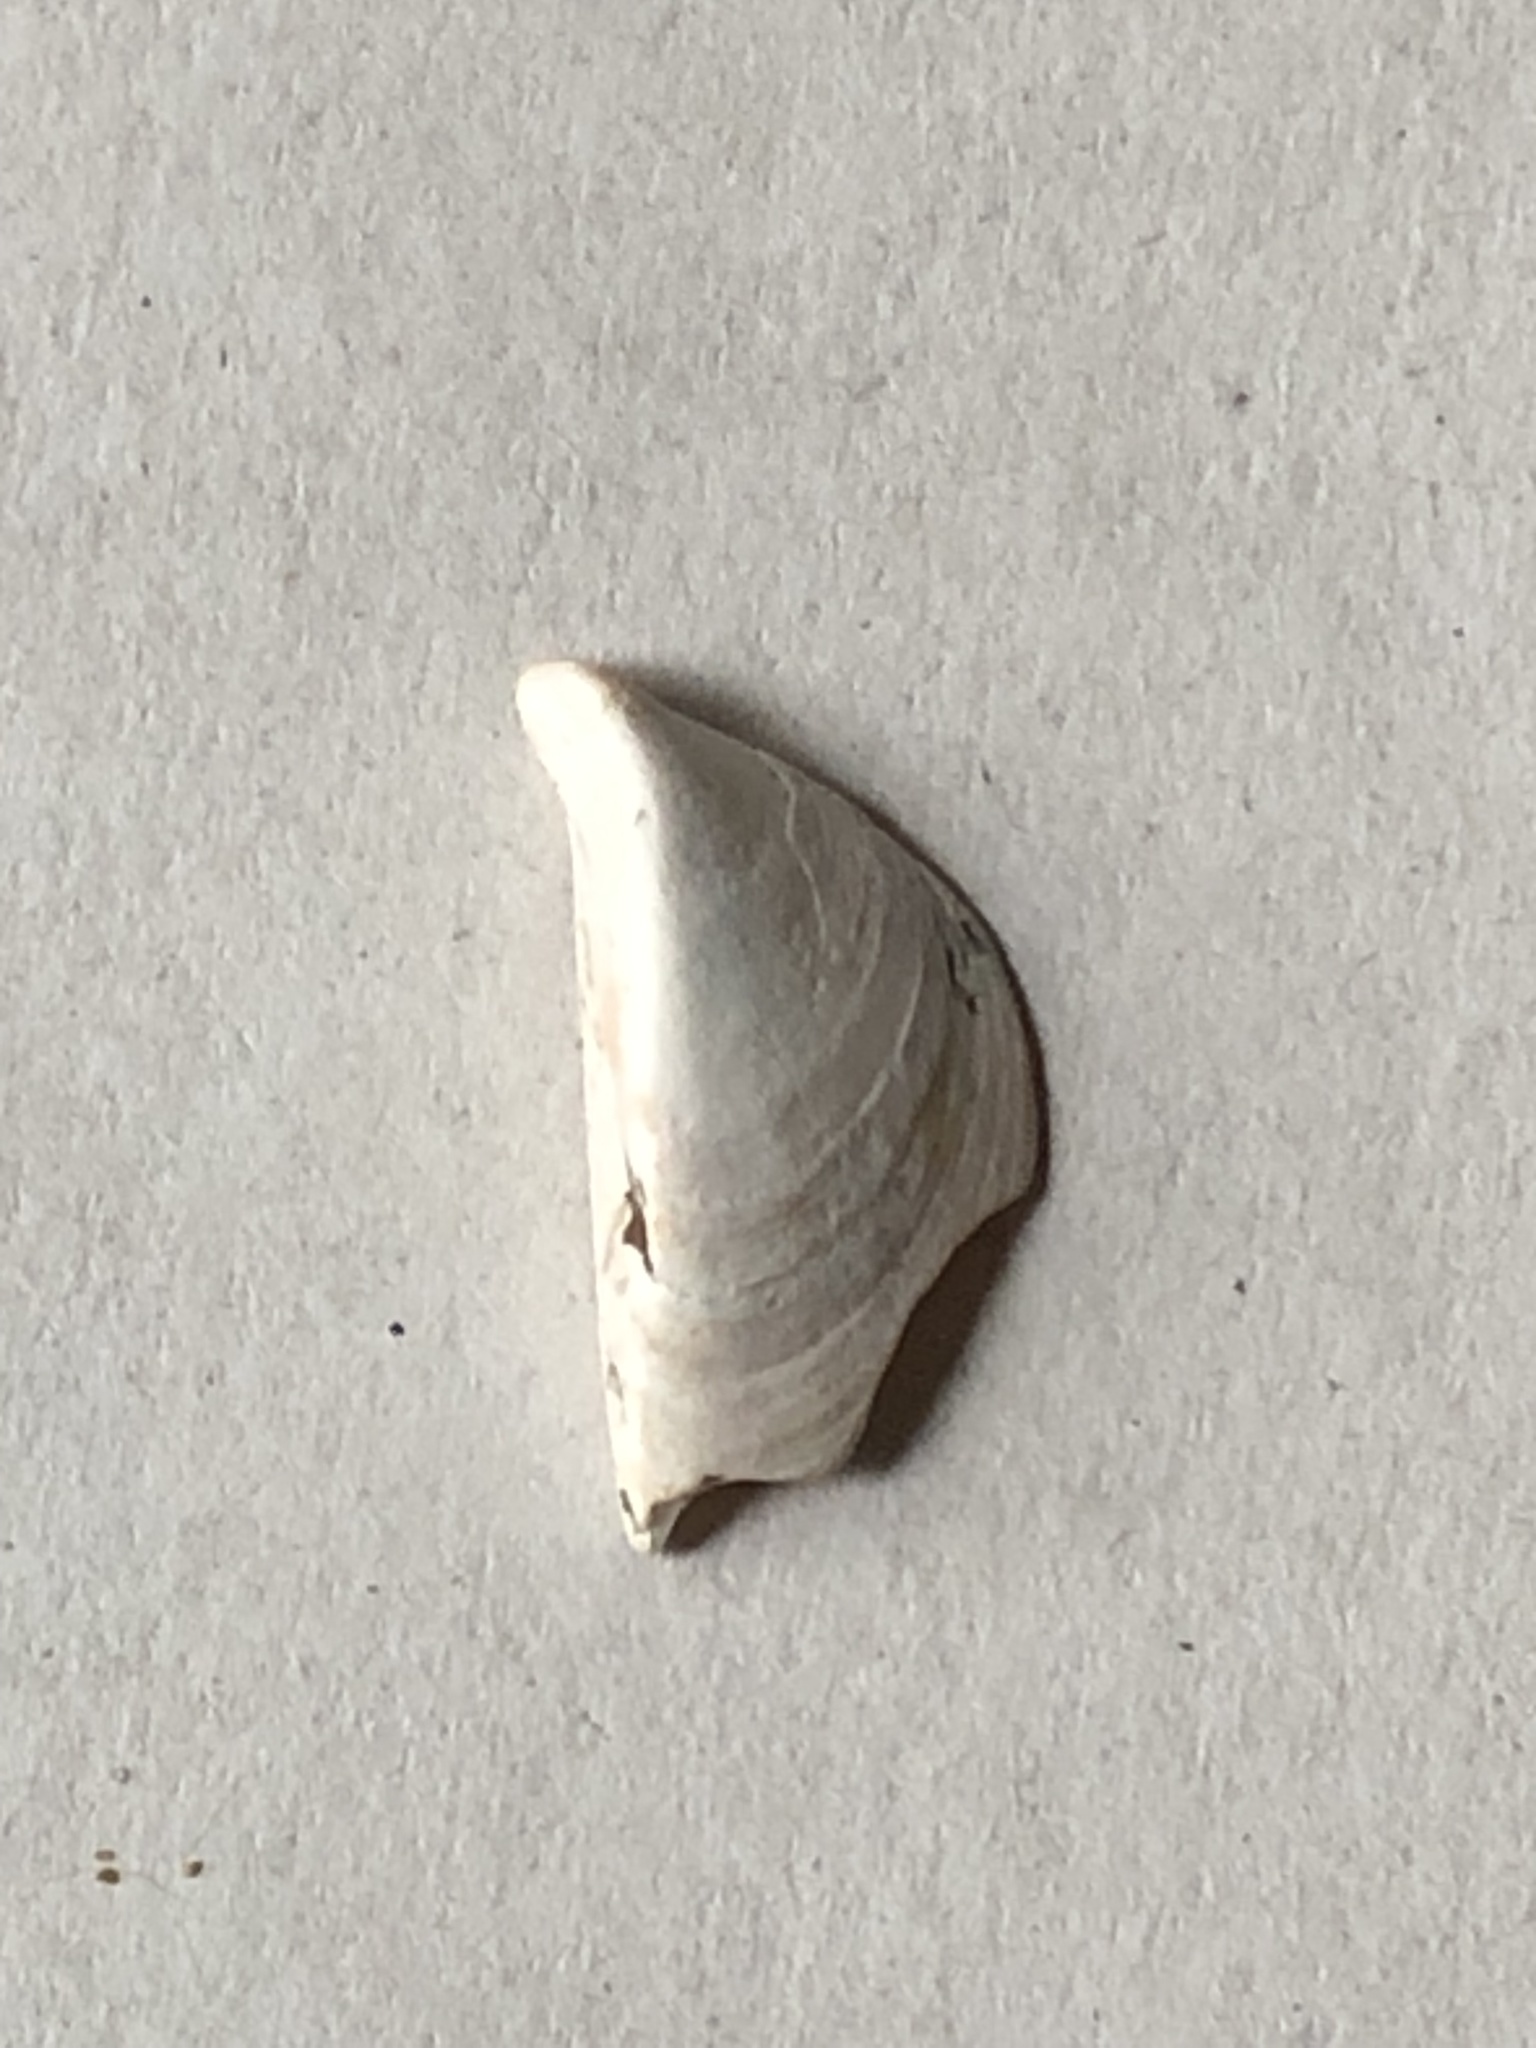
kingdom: Animalia
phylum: Mollusca
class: Bivalvia
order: Myida
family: Dreissenidae
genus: Dreissena
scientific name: Dreissena polymorpha
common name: Zebra mussel
